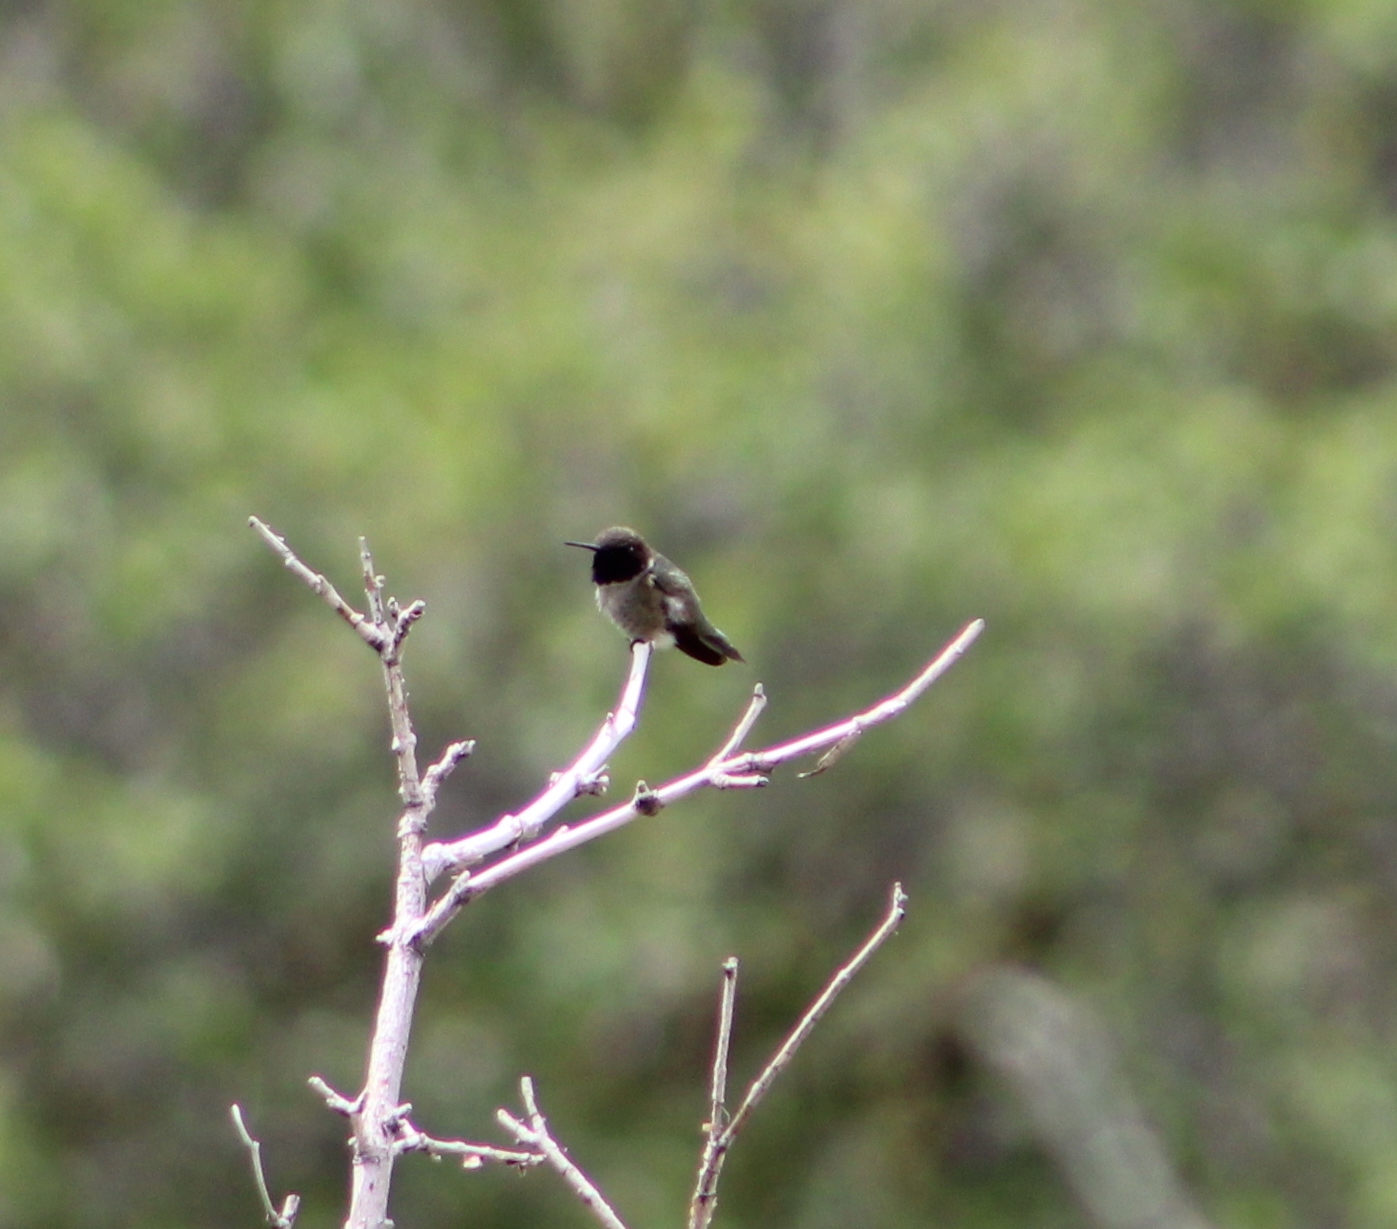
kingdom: Animalia
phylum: Chordata
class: Aves
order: Apodiformes
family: Trochilidae
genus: Archilochus
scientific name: Archilochus alexandri
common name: Black-chinned hummingbird
